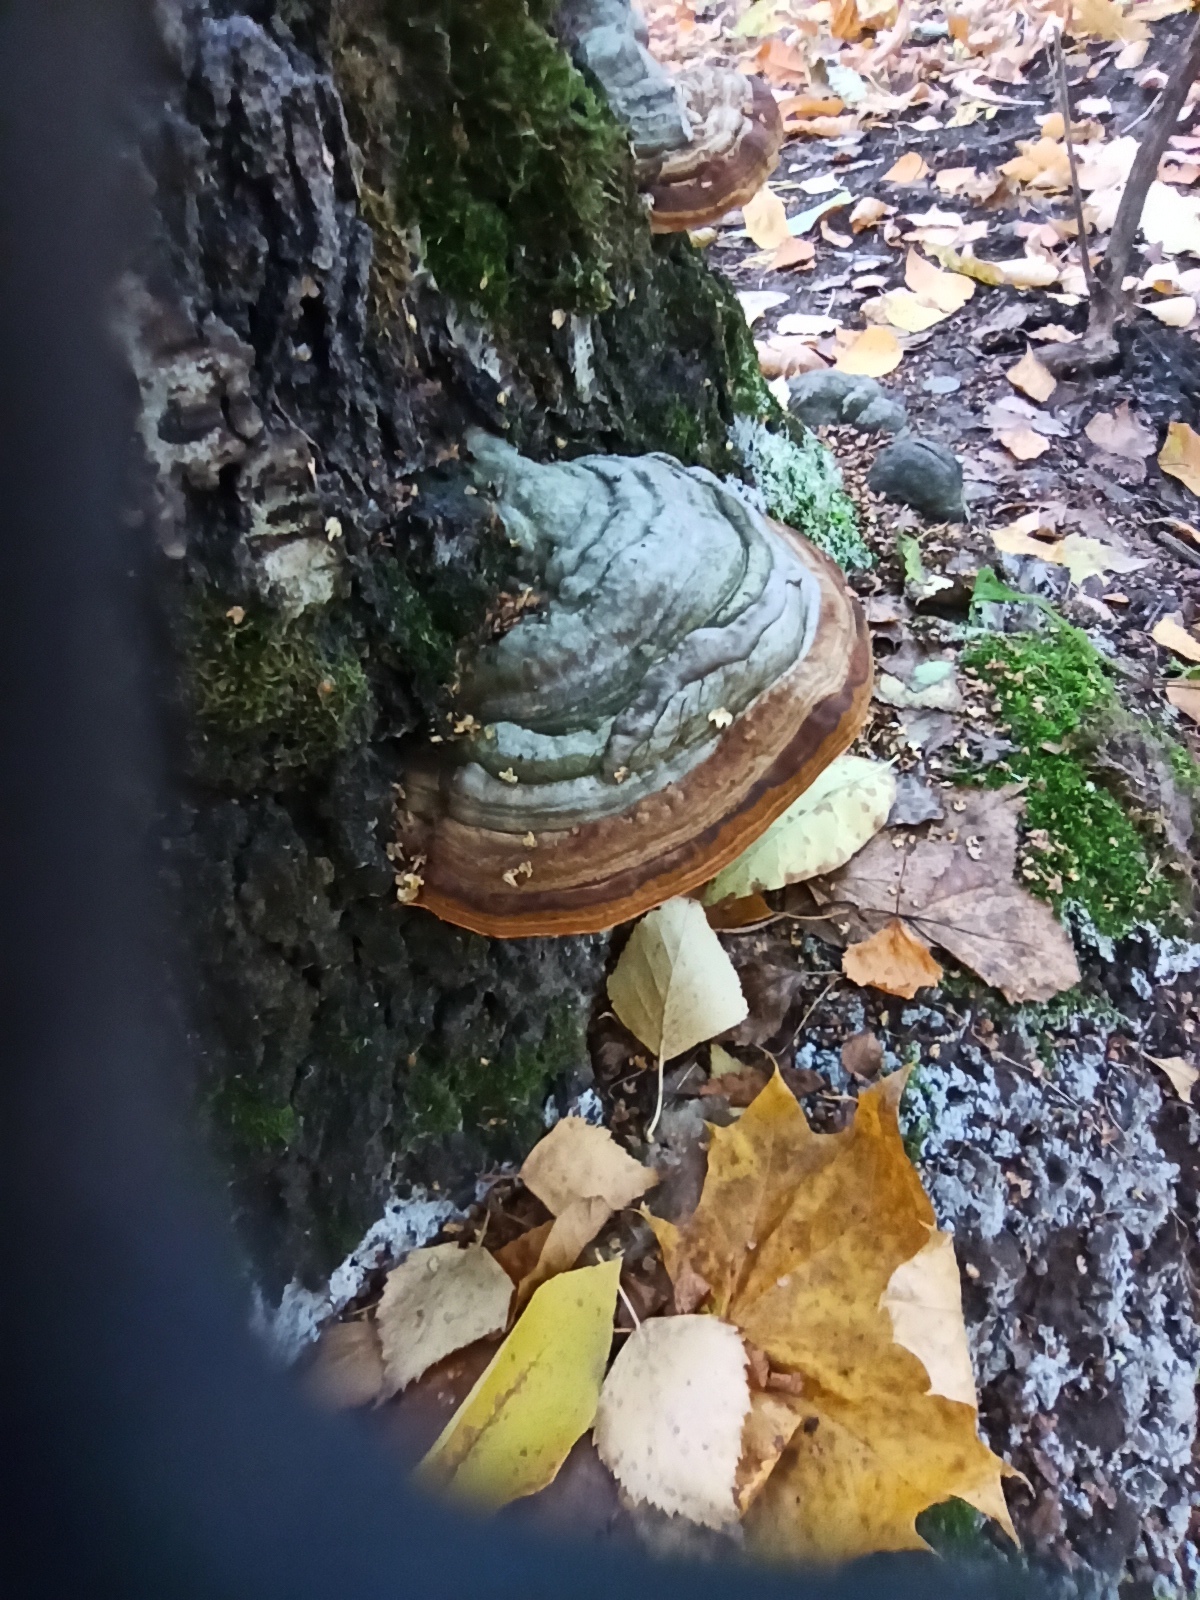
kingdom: Fungi
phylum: Basidiomycota
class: Agaricomycetes
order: Polyporales
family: Polyporaceae
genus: Fomes
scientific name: Fomes fomentarius
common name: Hoof fungus
